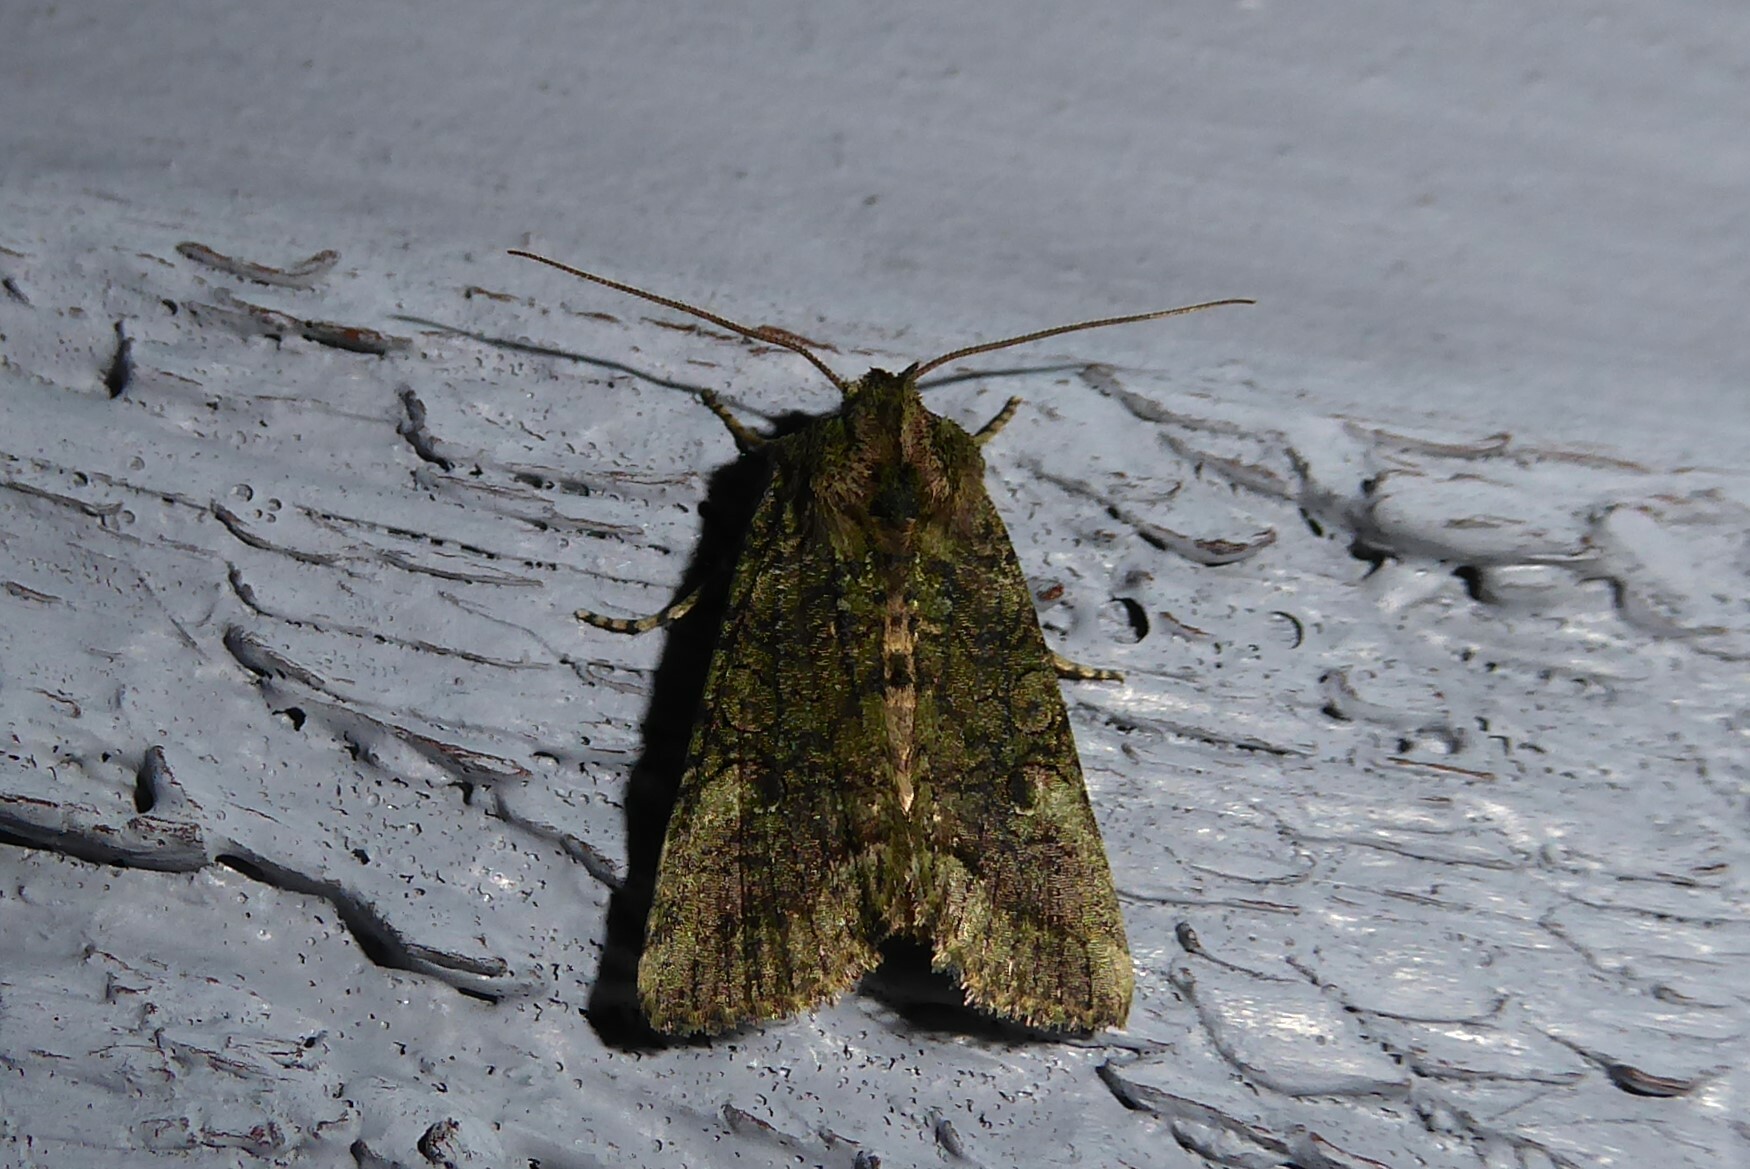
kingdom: Animalia
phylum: Arthropoda
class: Insecta
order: Lepidoptera
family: Noctuidae
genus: Meterana
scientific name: Meterana levis
